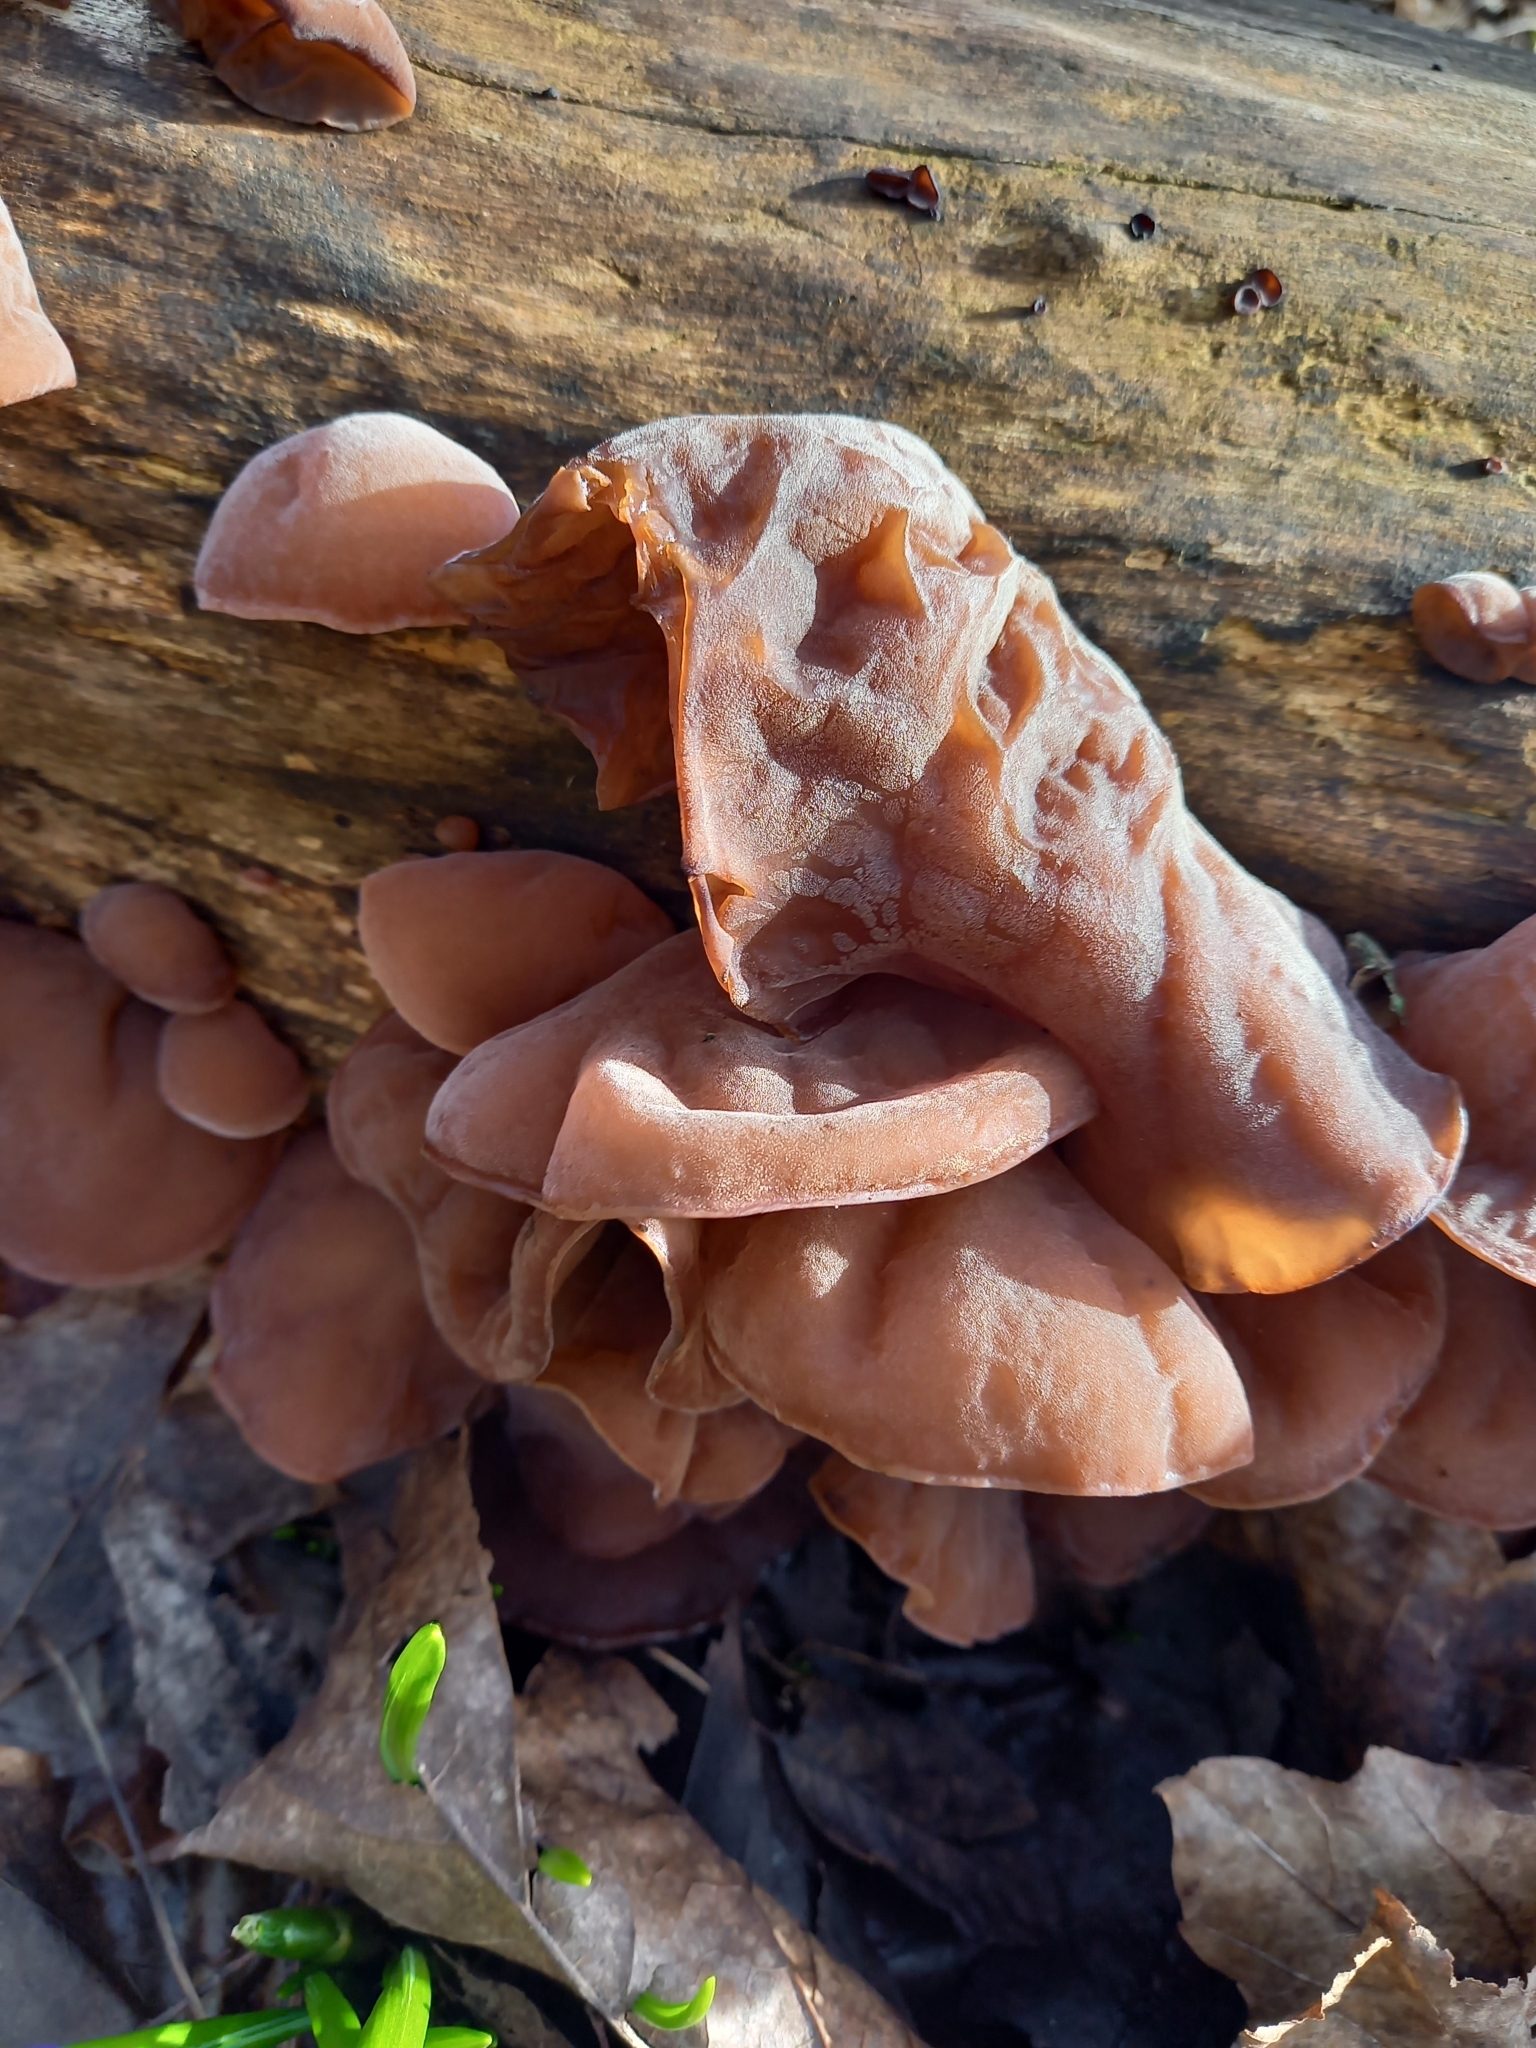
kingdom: Fungi
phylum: Basidiomycota
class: Agaricomycetes
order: Auriculariales
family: Auriculariaceae
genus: Auricularia
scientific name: Auricularia auricula-judae
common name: Jelly ear
